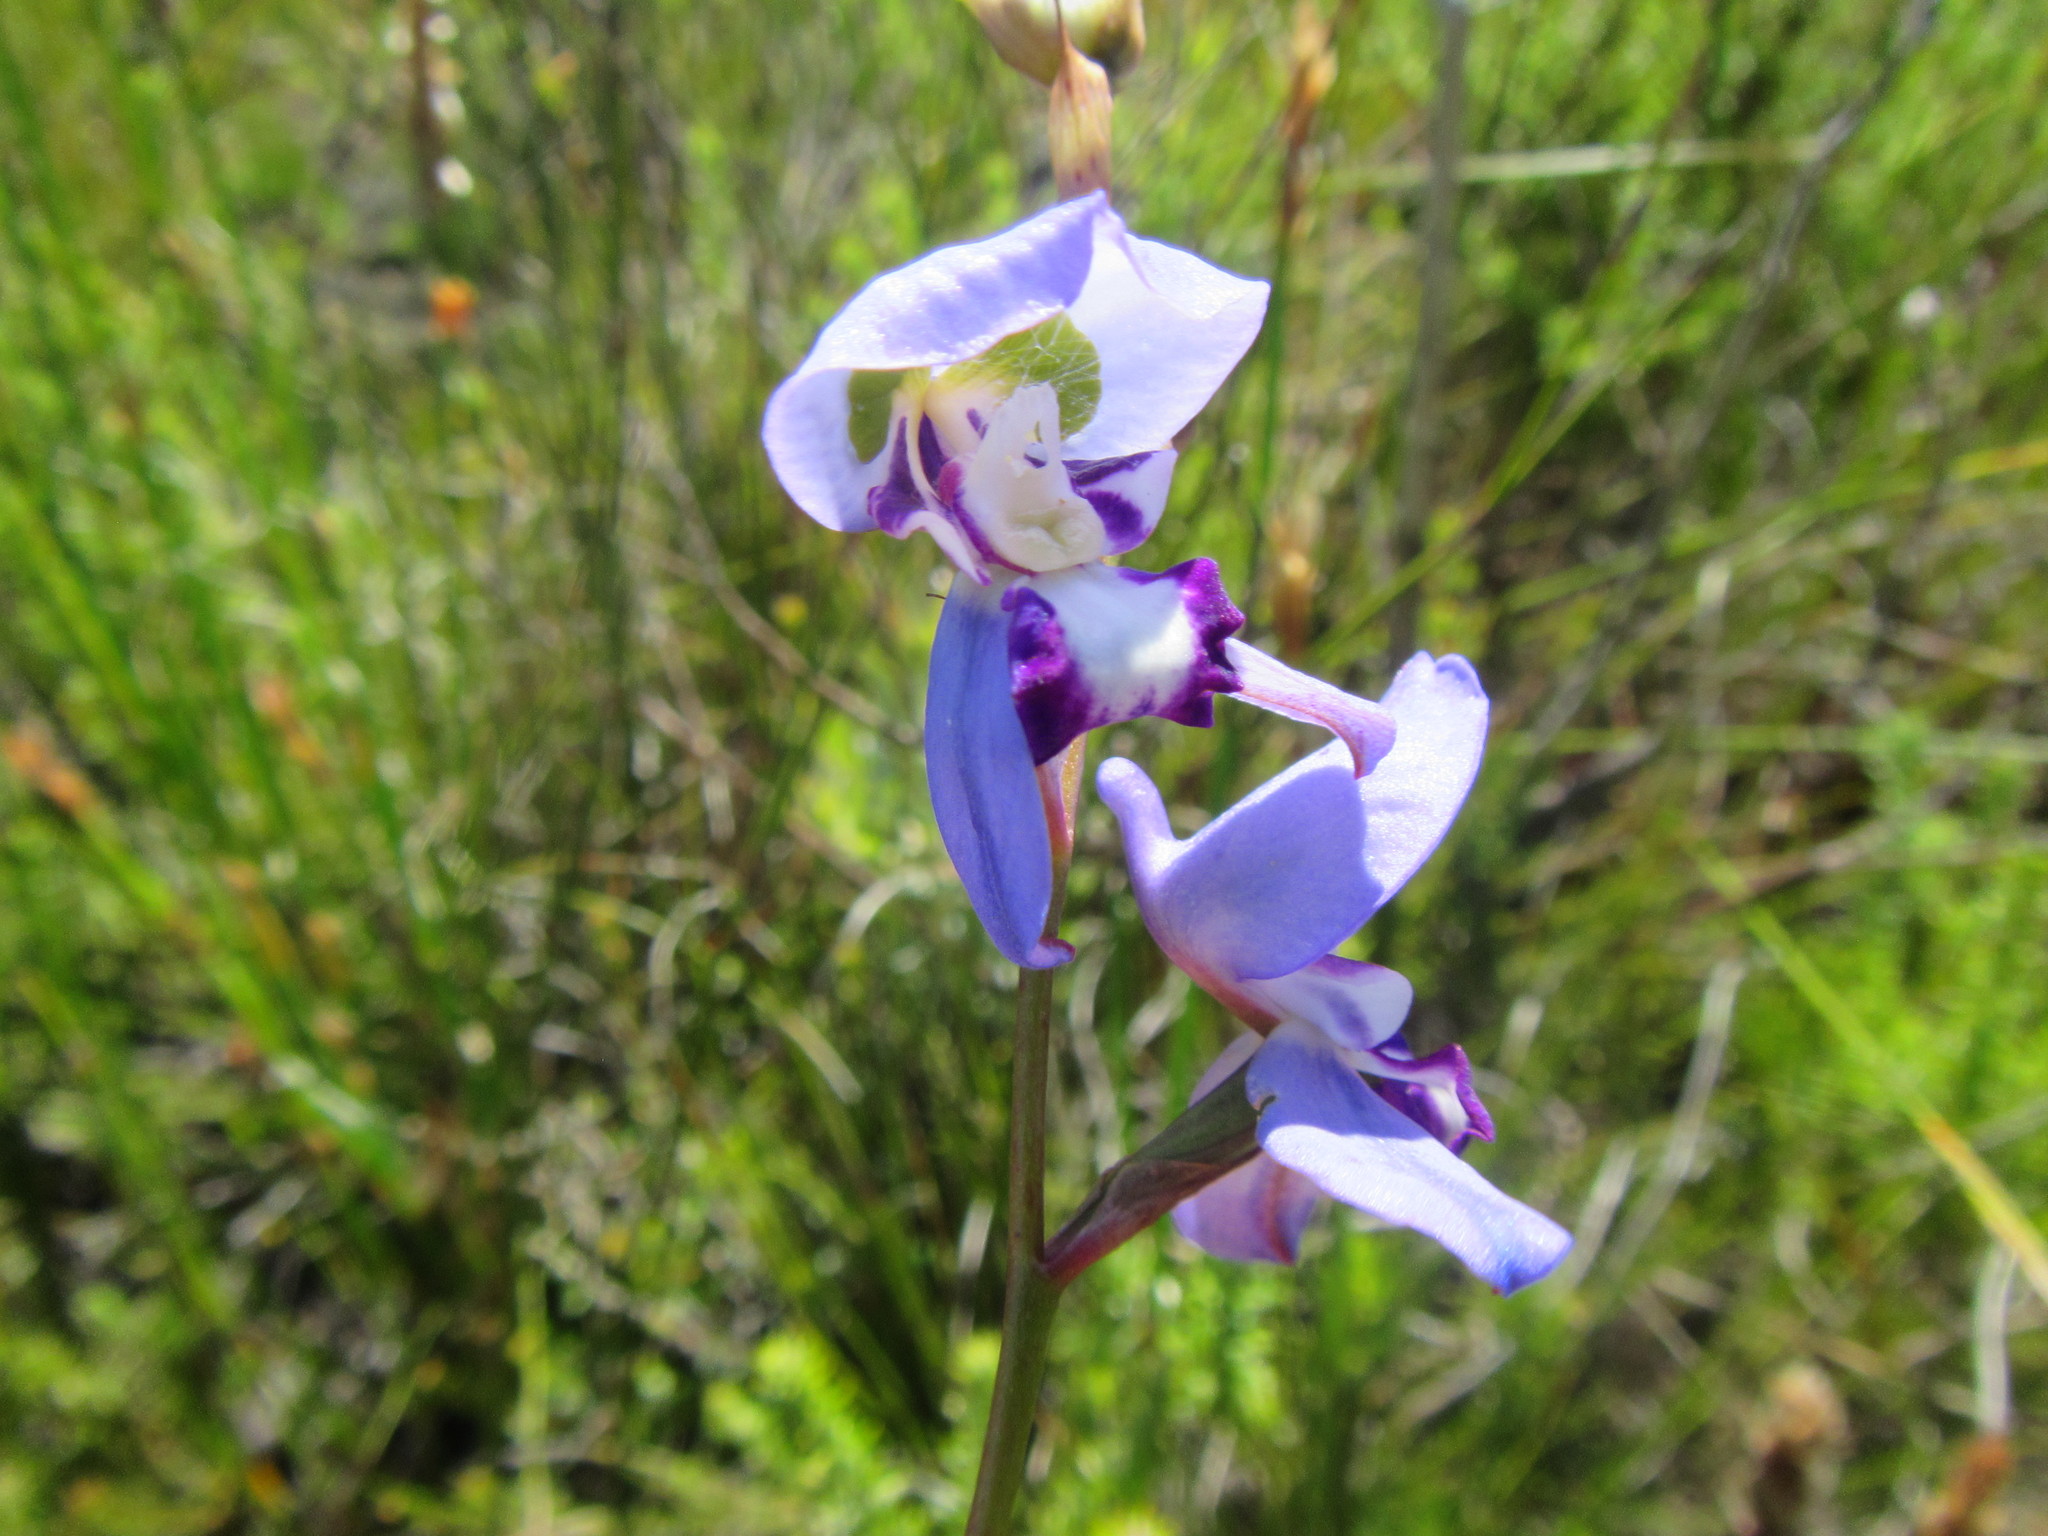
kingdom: Plantae
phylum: Tracheophyta
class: Liliopsida
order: Asparagales
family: Orchidaceae
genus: Disa
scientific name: Disa graminifolia
